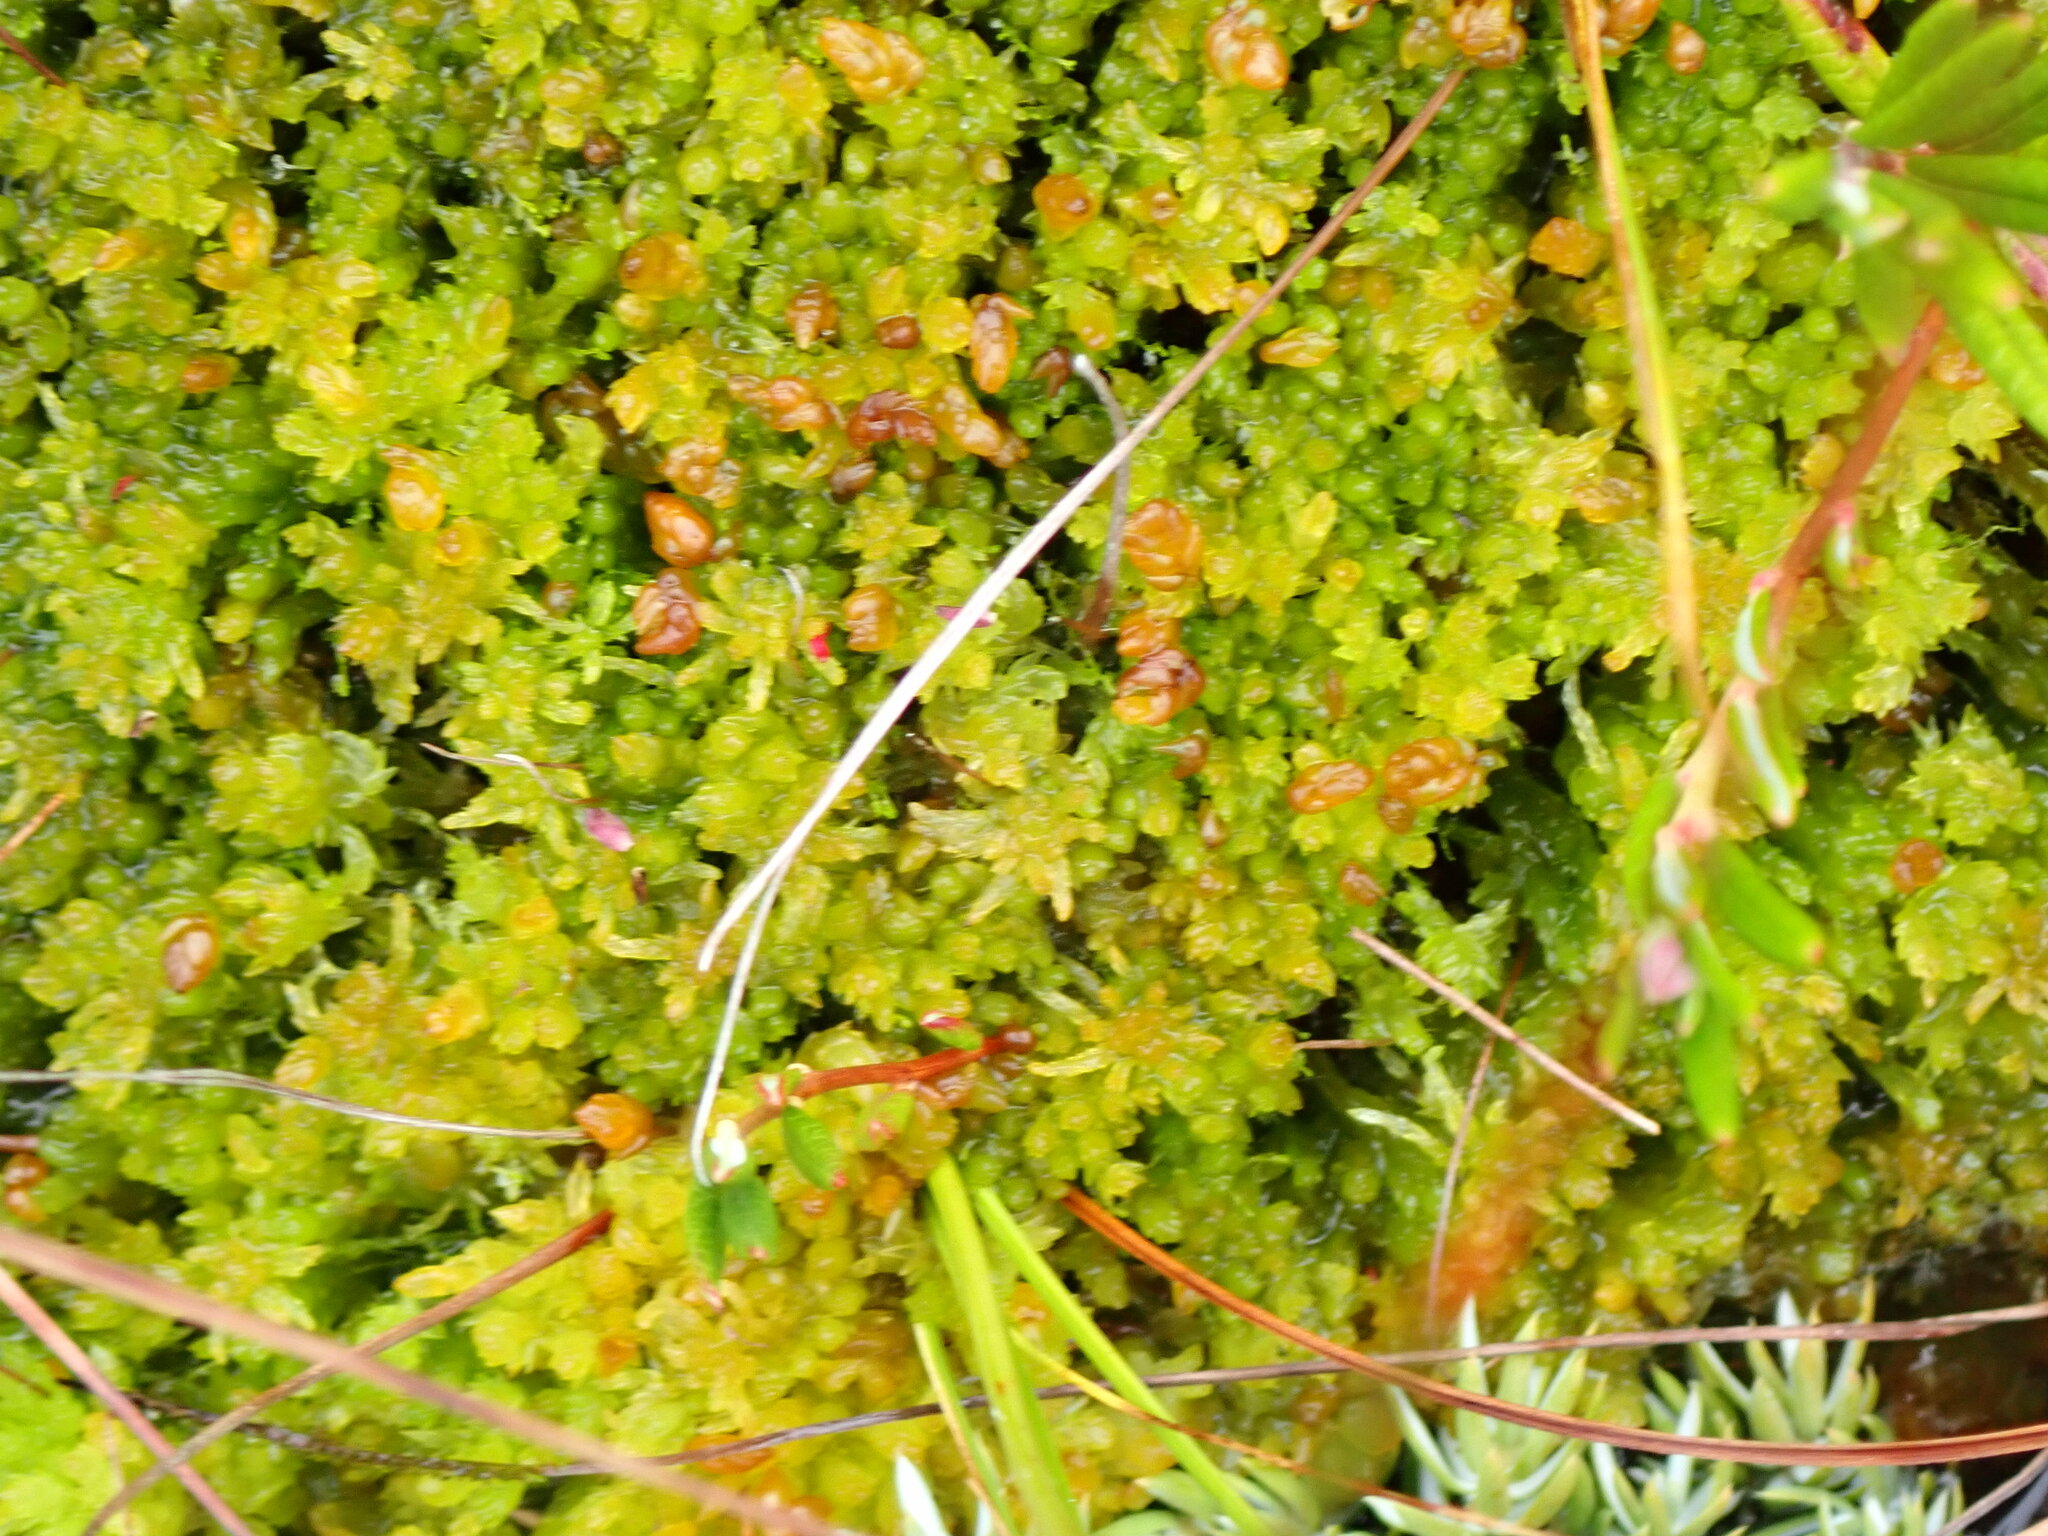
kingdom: Plantae
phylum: Bryophyta
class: Sphagnopsida
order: Sphagnales
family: Sphagnaceae
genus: Sphagnum
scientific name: Sphagnum compactum
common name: Compact peat moss
